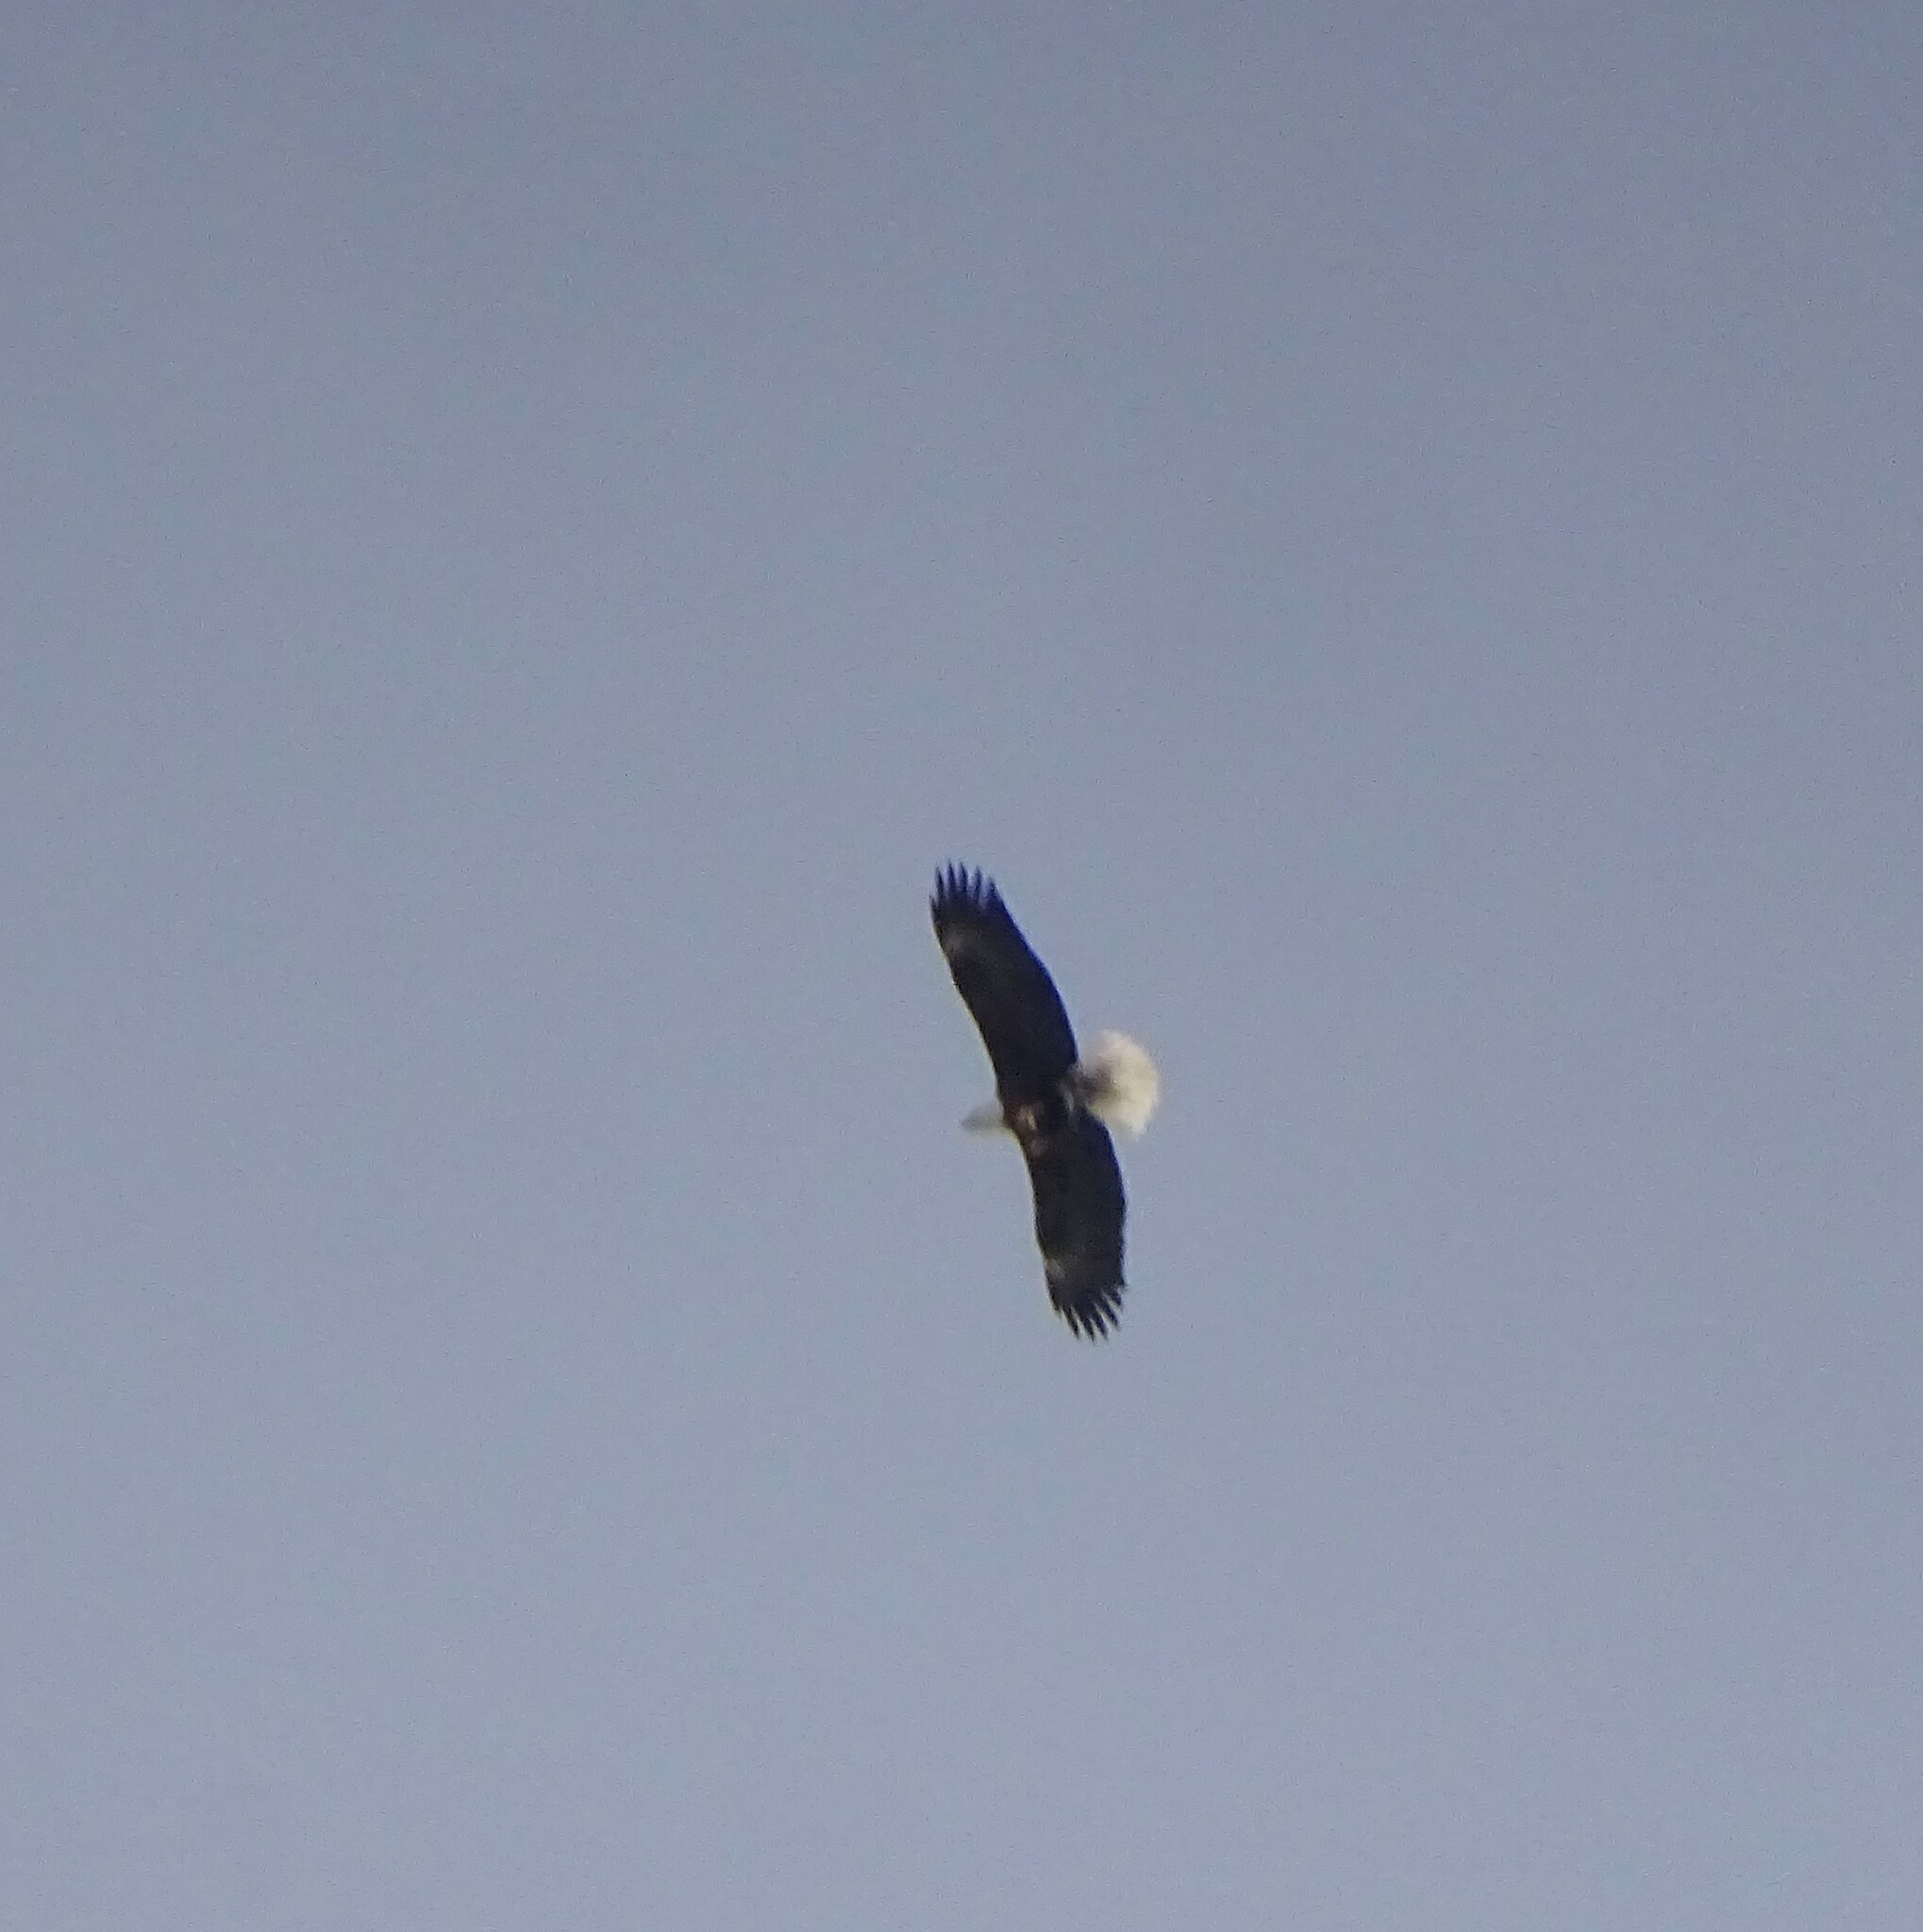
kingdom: Animalia
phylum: Chordata
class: Aves
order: Accipitriformes
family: Accipitridae
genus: Haliaeetus
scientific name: Haliaeetus leucocephalus
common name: Bald eagle
